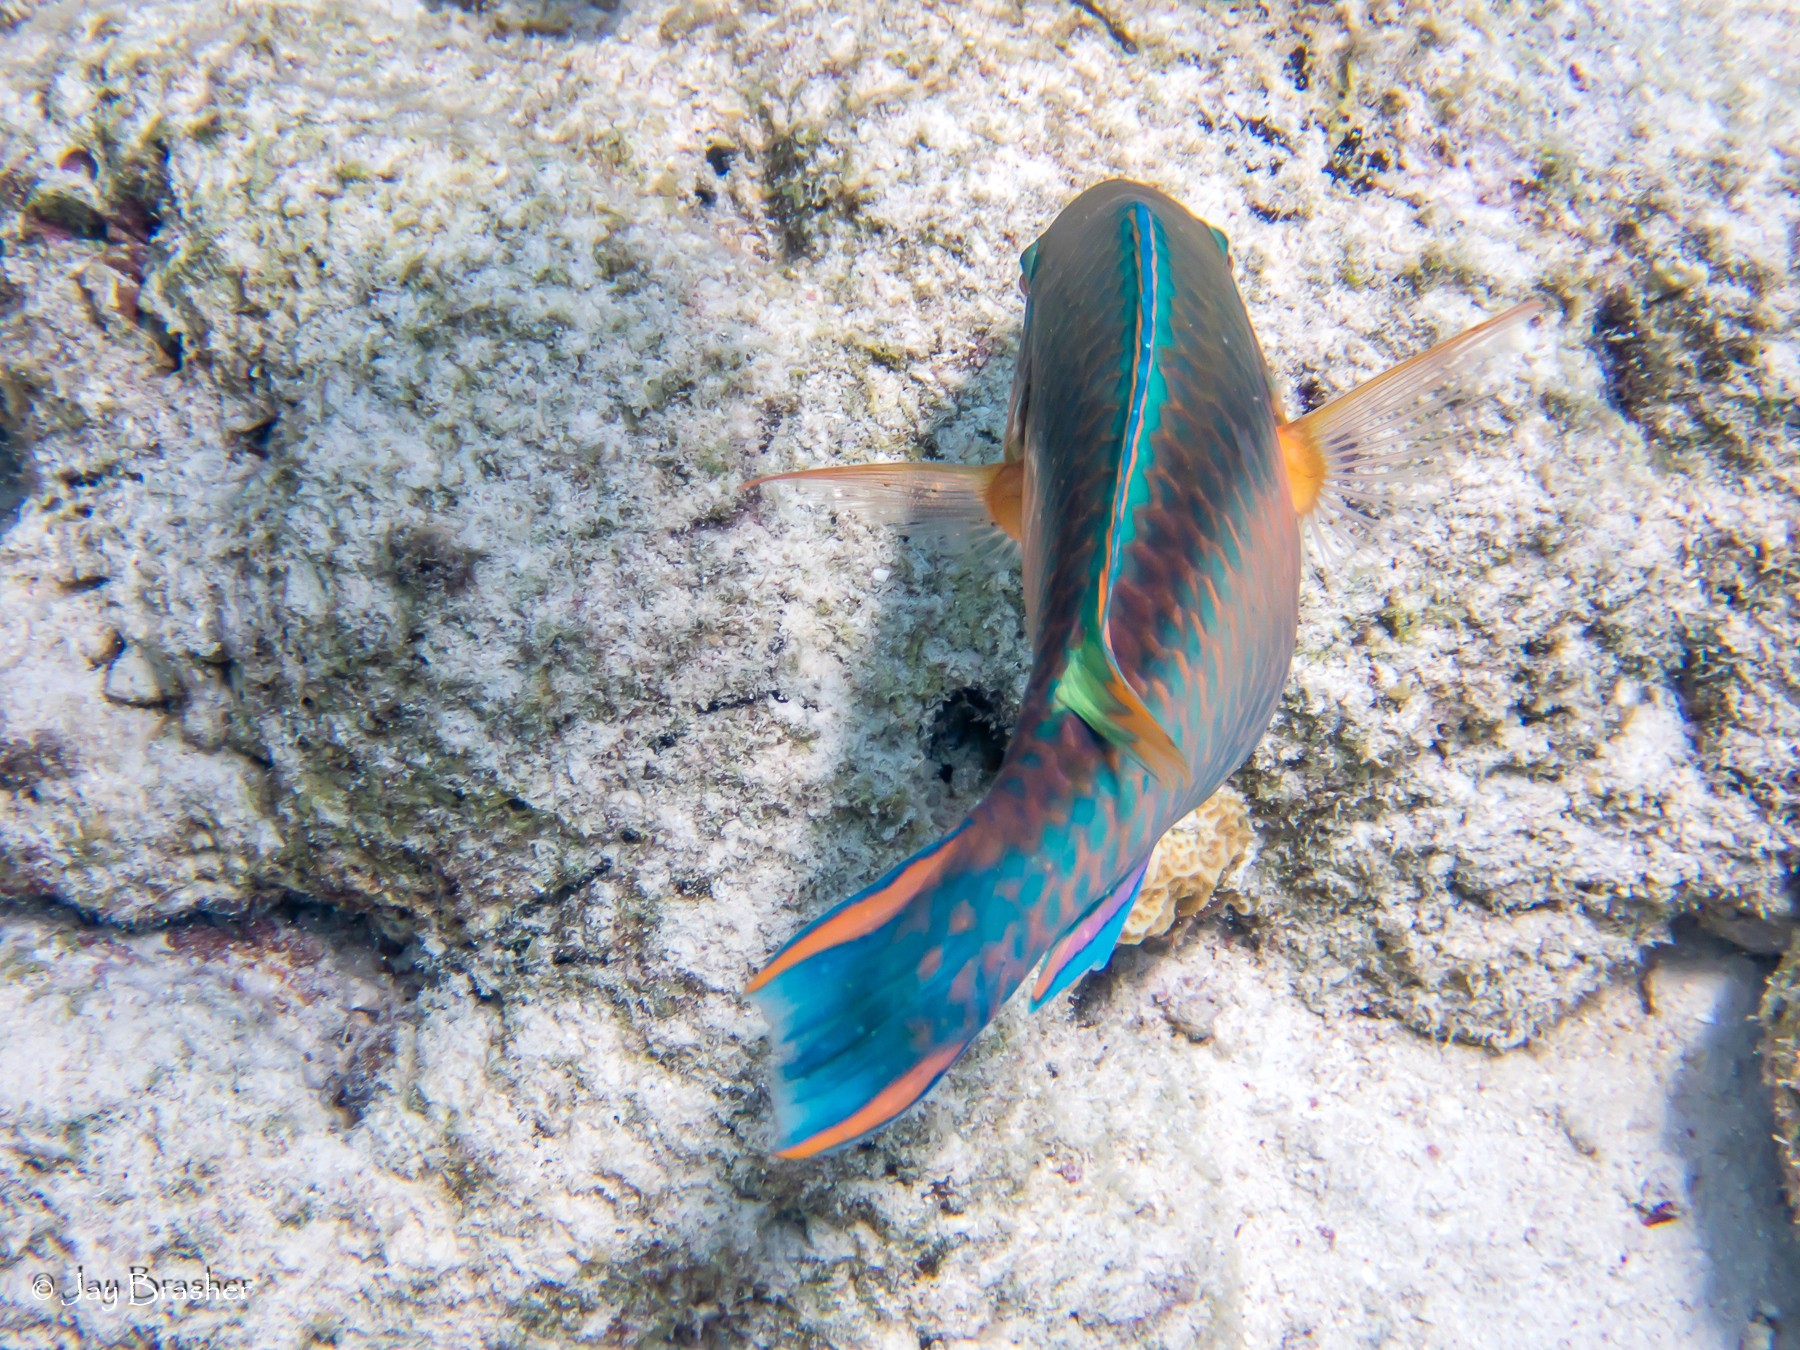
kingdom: Animalia
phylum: Chordata
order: Perciformes
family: Scaridae
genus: Scarus
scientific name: Scarus taeniopterus
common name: Princess parrotfish
